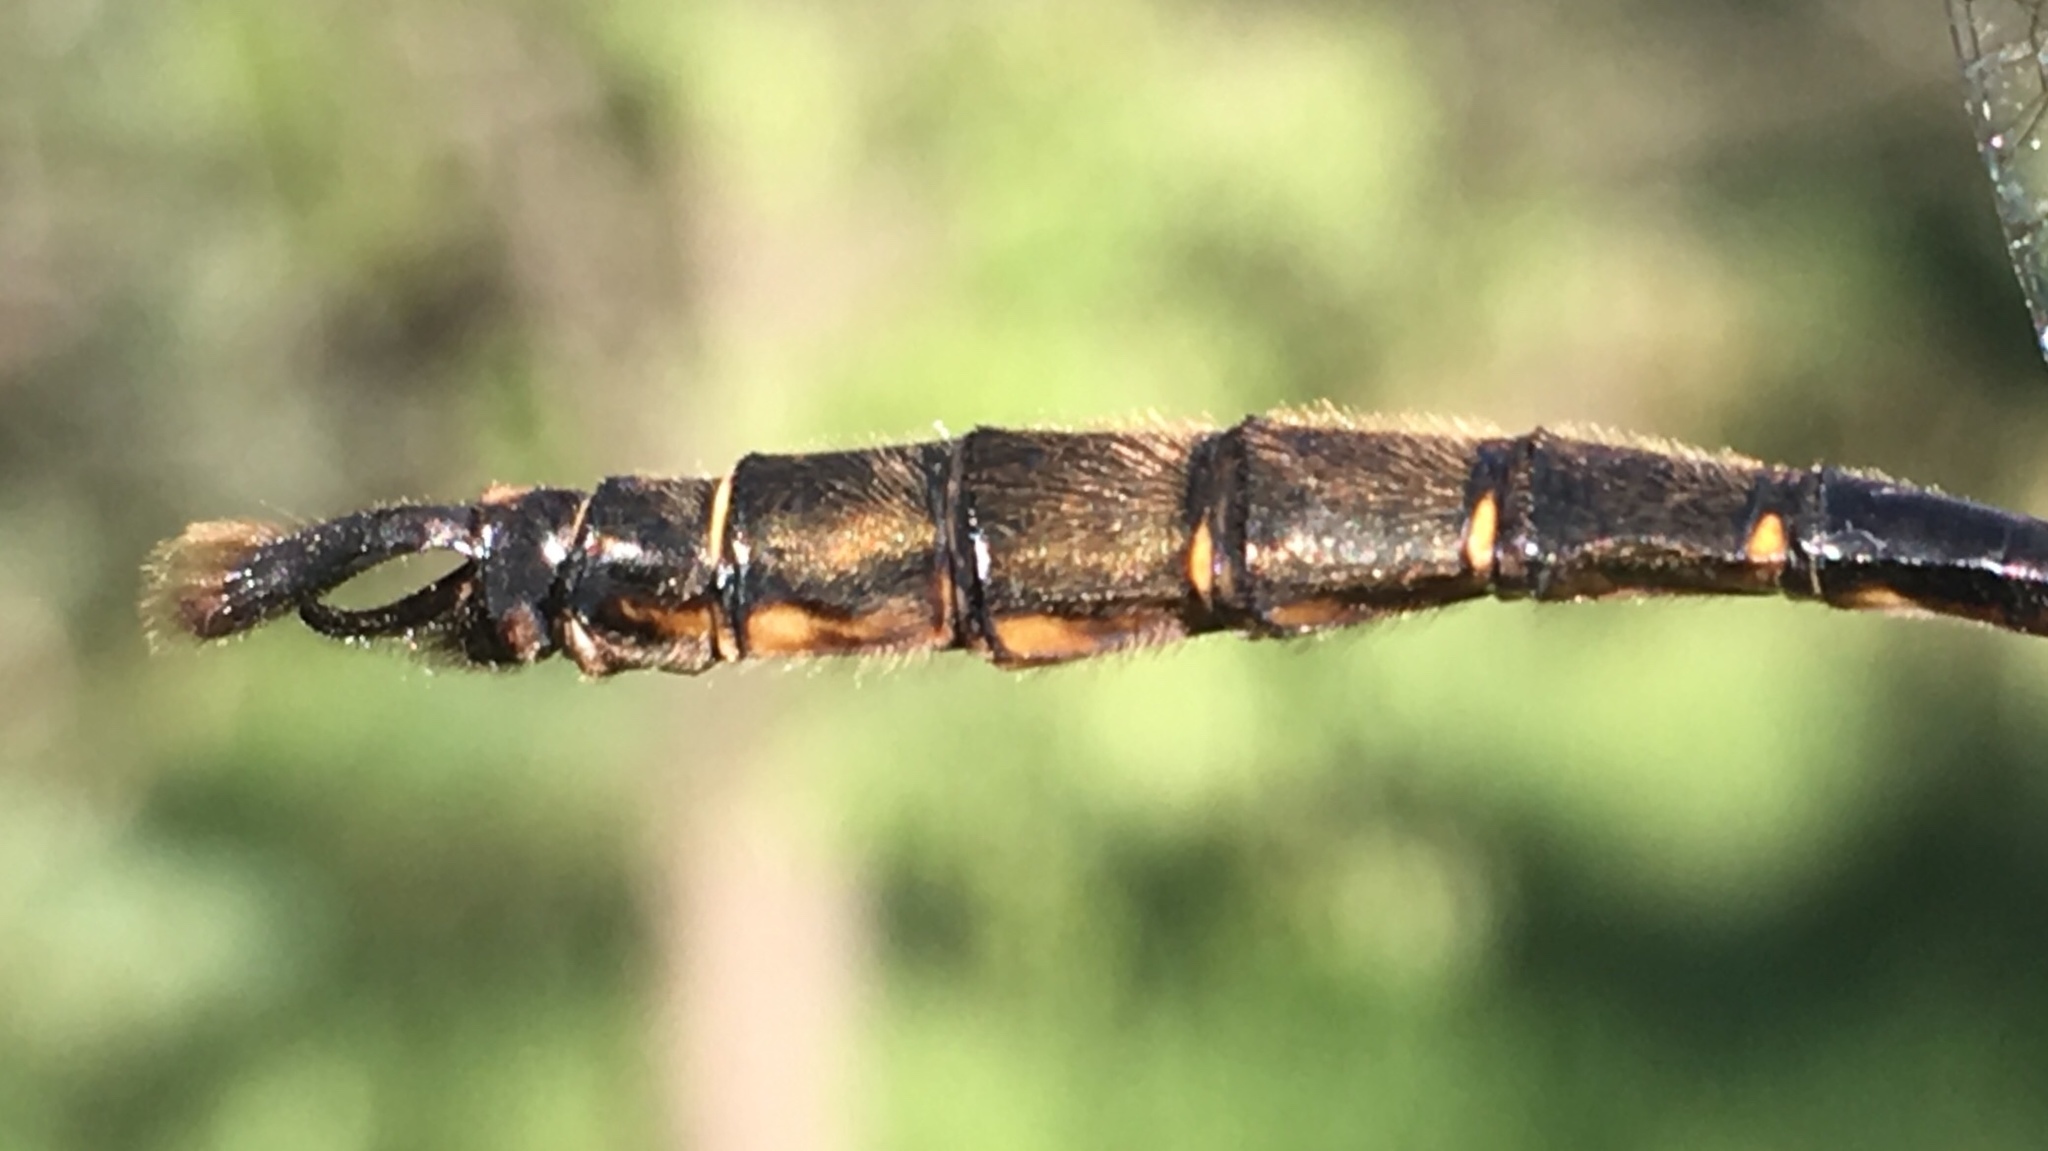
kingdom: Animalia
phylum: Arthropoda
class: Insecta
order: Odonata
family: Corduliidae
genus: Somatochlora
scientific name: Somatochlora walshii
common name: Brush-tipped emerald
